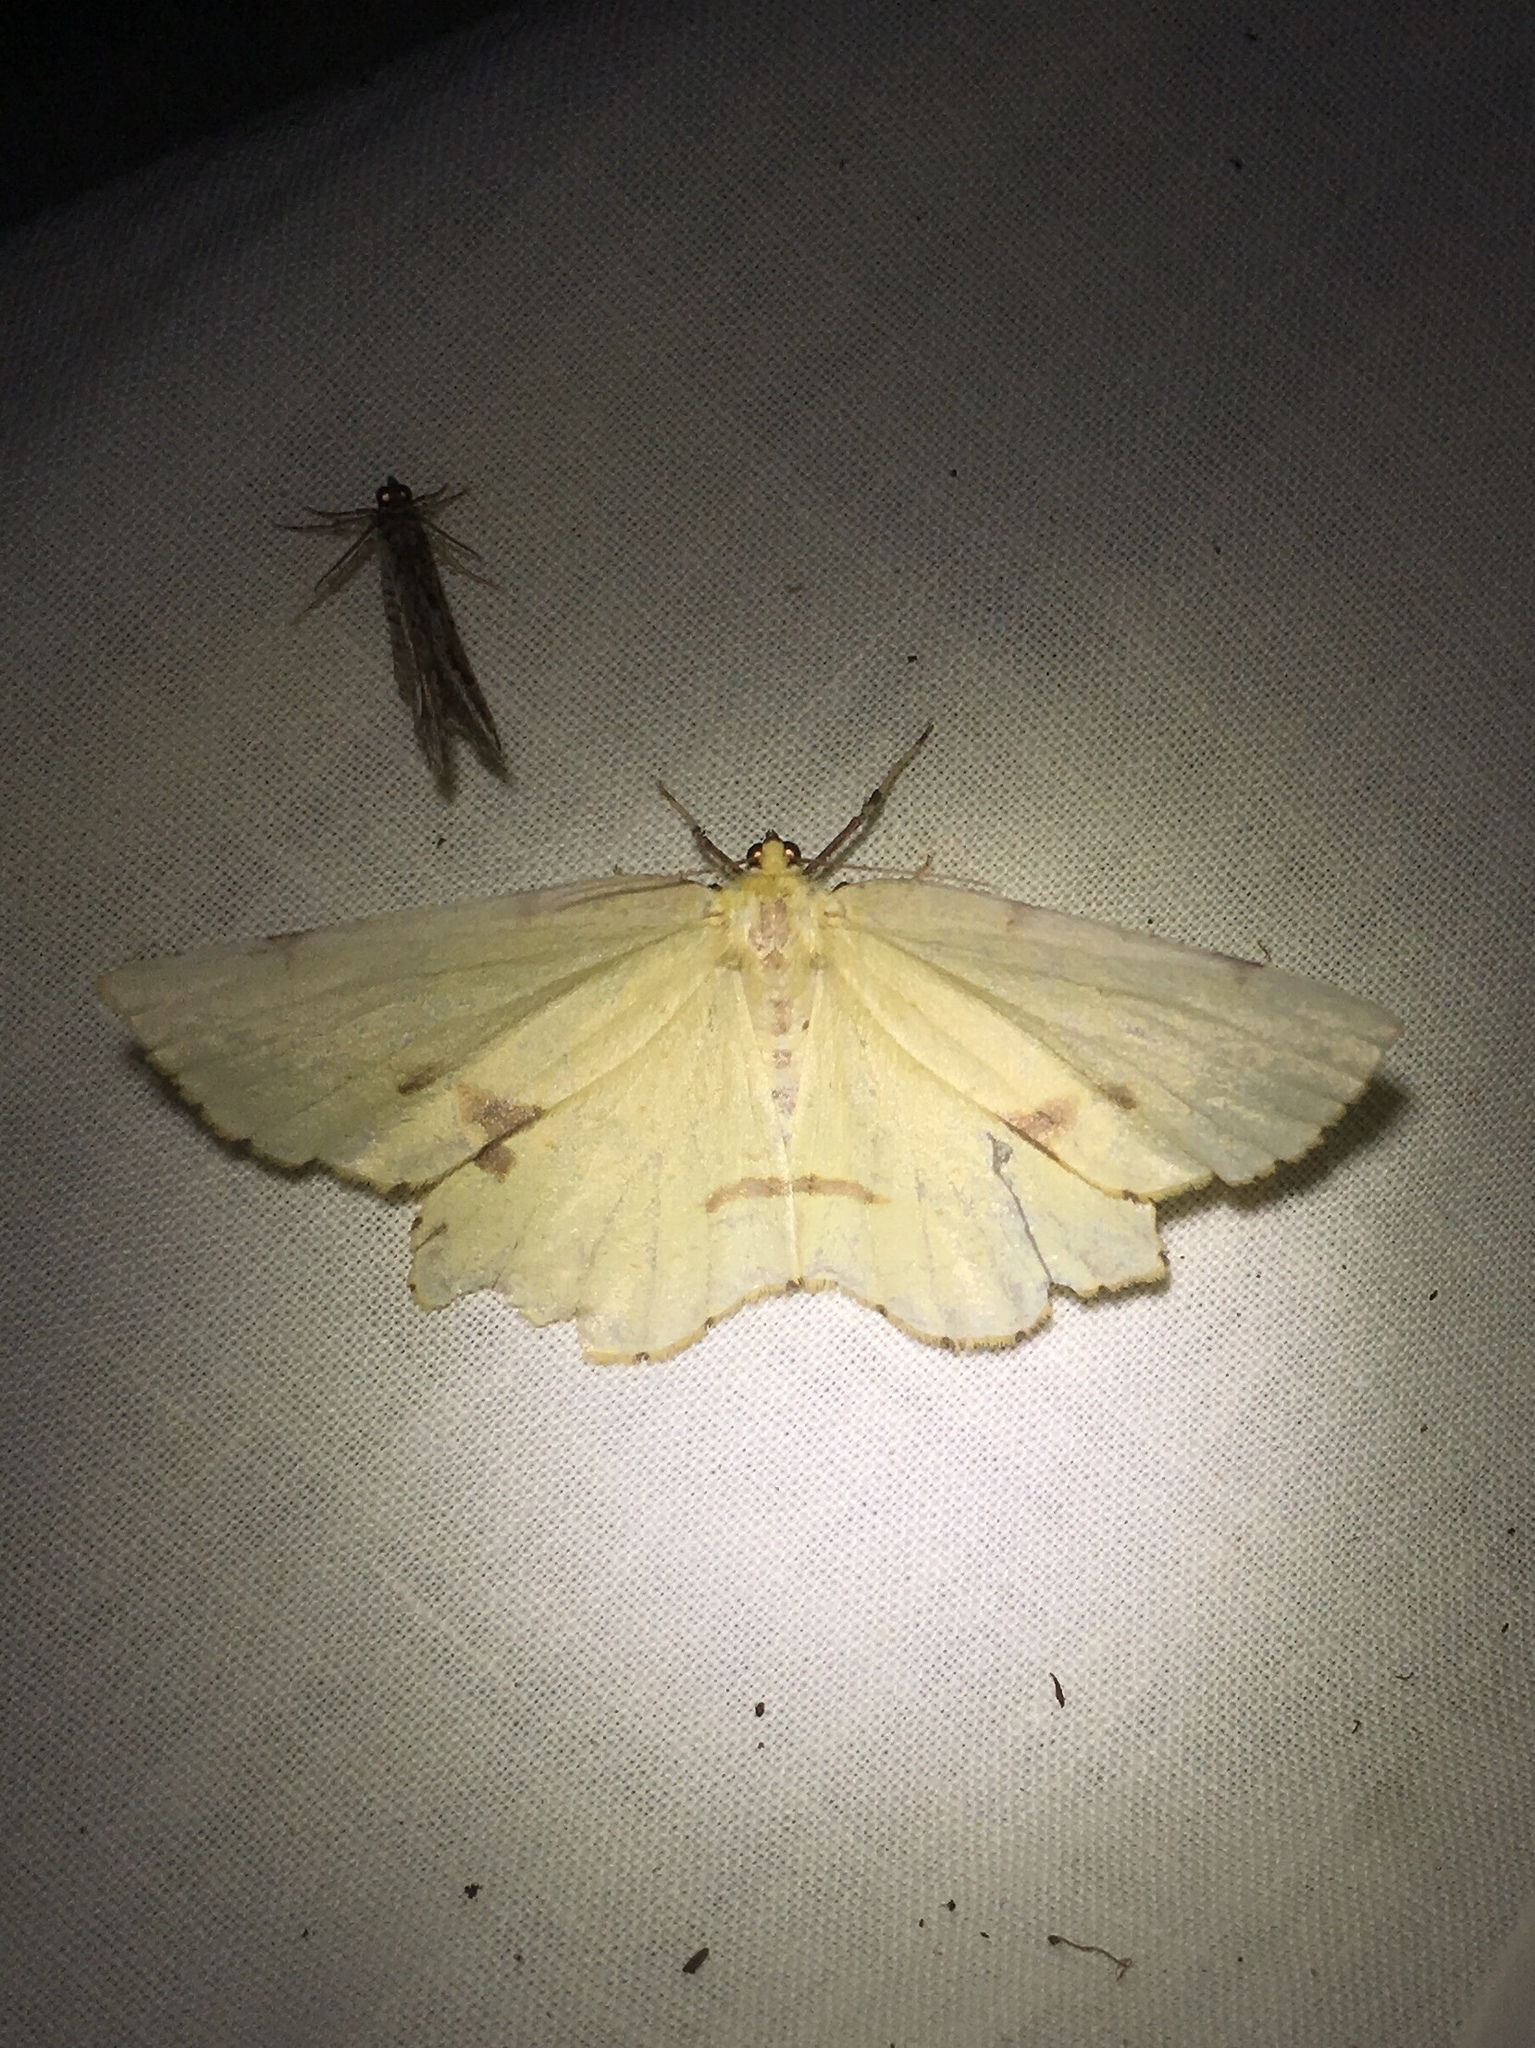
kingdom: Animalia
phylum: Arthropoda
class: Insecta
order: Lepidoptera
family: Geometridae
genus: Xanthotype
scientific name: Xanthotype
